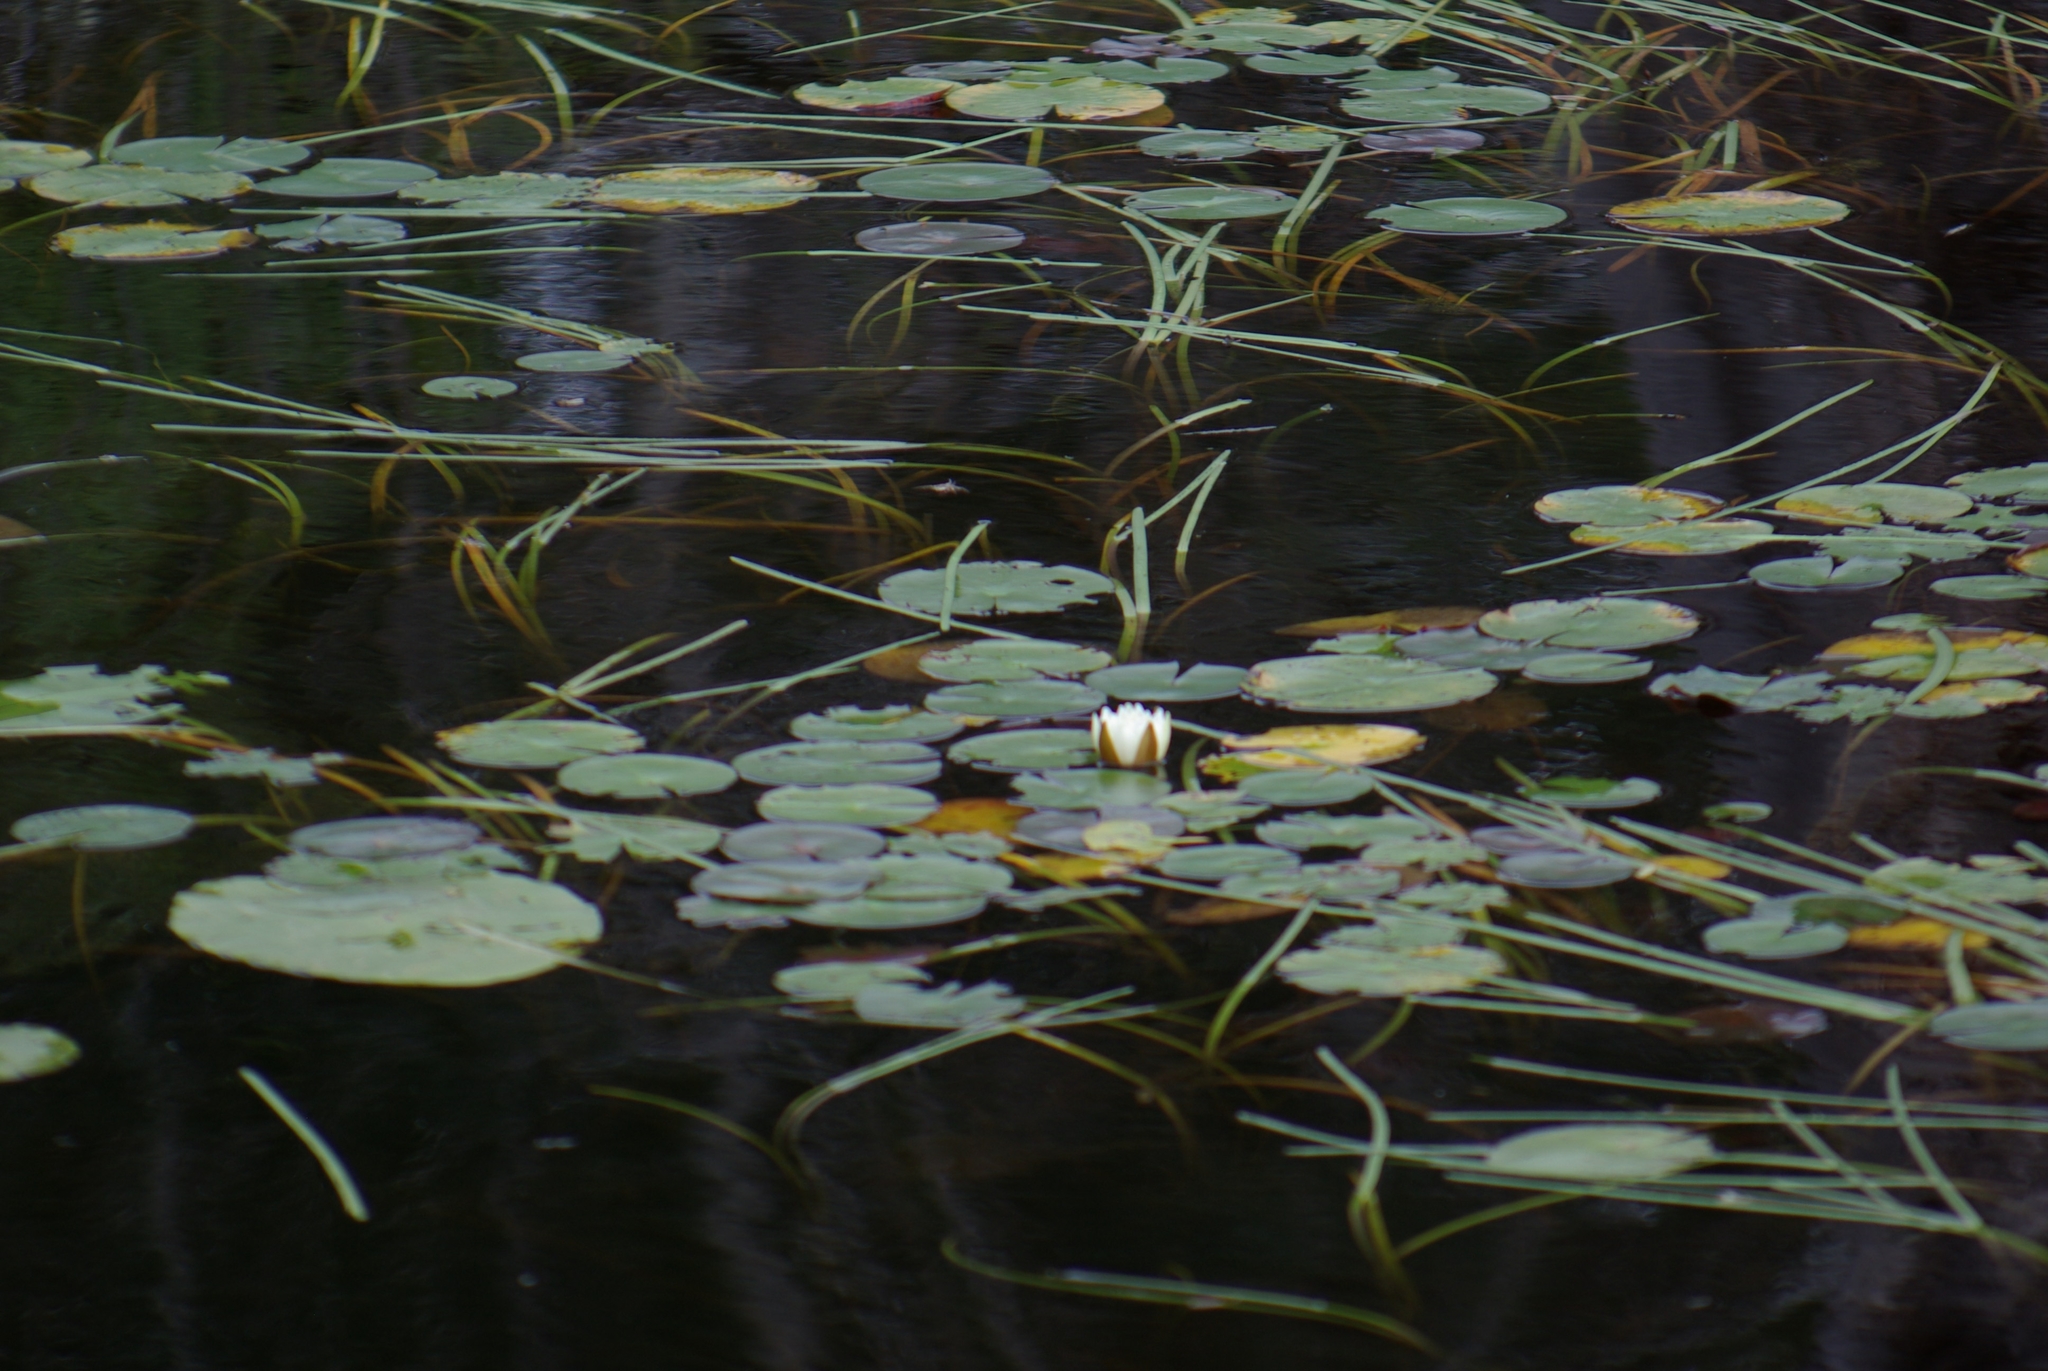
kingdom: Plantae
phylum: Tracheophyta
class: Magnoliopsida
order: Nymphaeales
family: Nymphaeaceae
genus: Nymphaea
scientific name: Nymphaea odorata
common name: Fragrant water-lily
